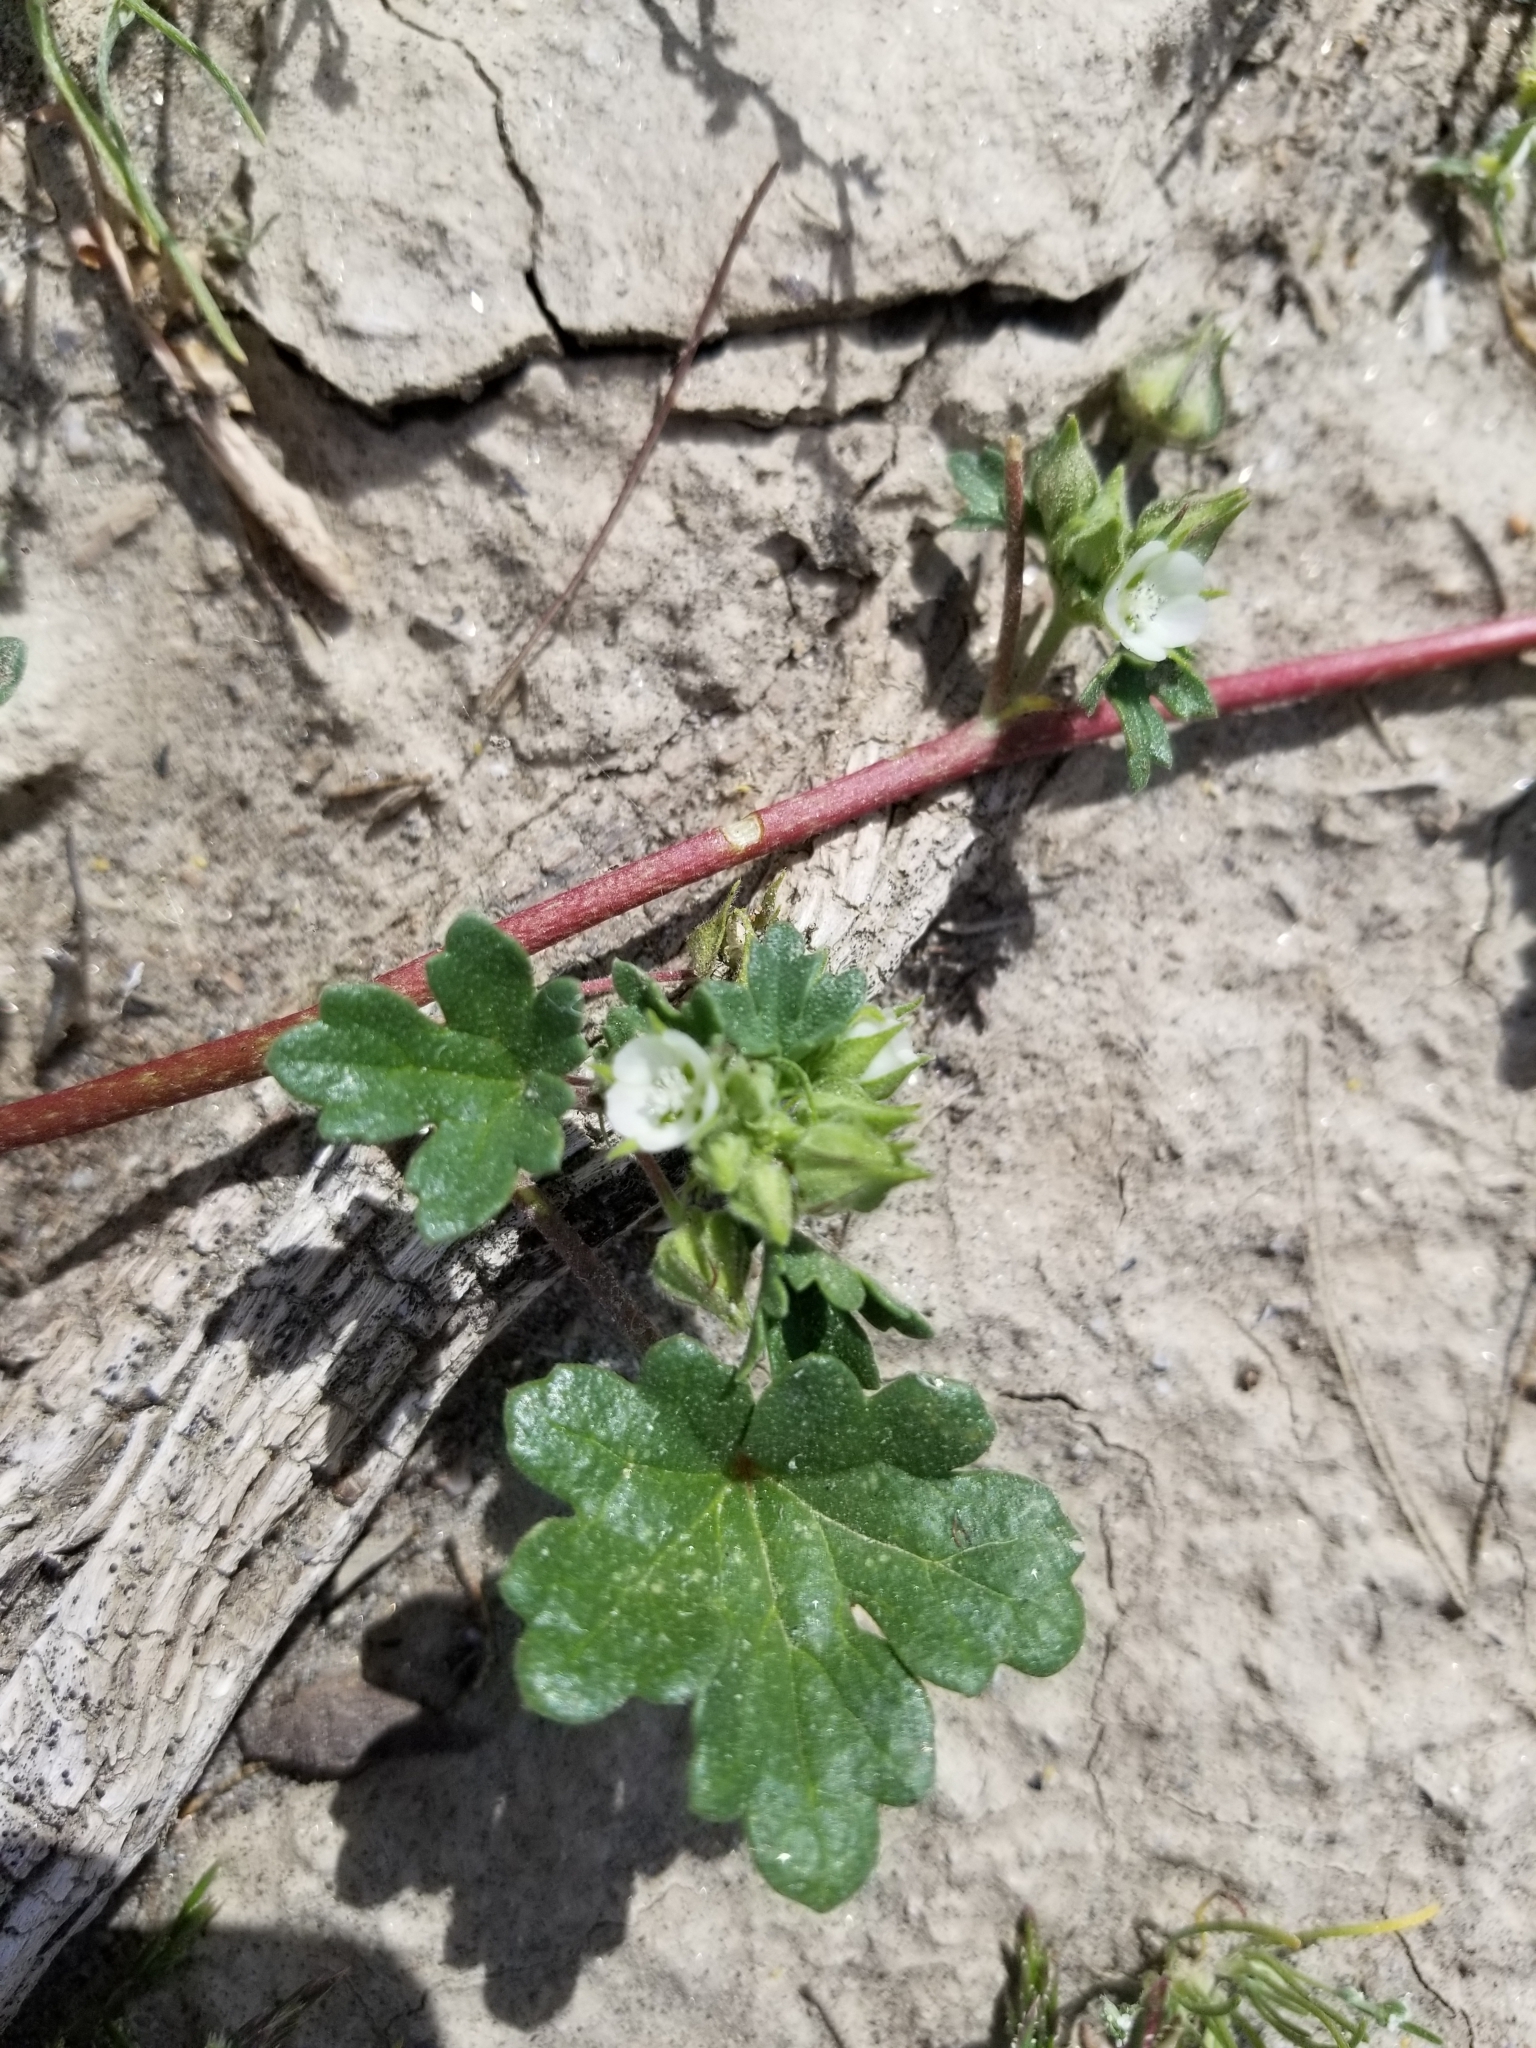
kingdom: Plantae
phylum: Tracheophyta
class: Magnoliopsida
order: Malvales
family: Malvaceae
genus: Eremalche
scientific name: Eremalche exilis
